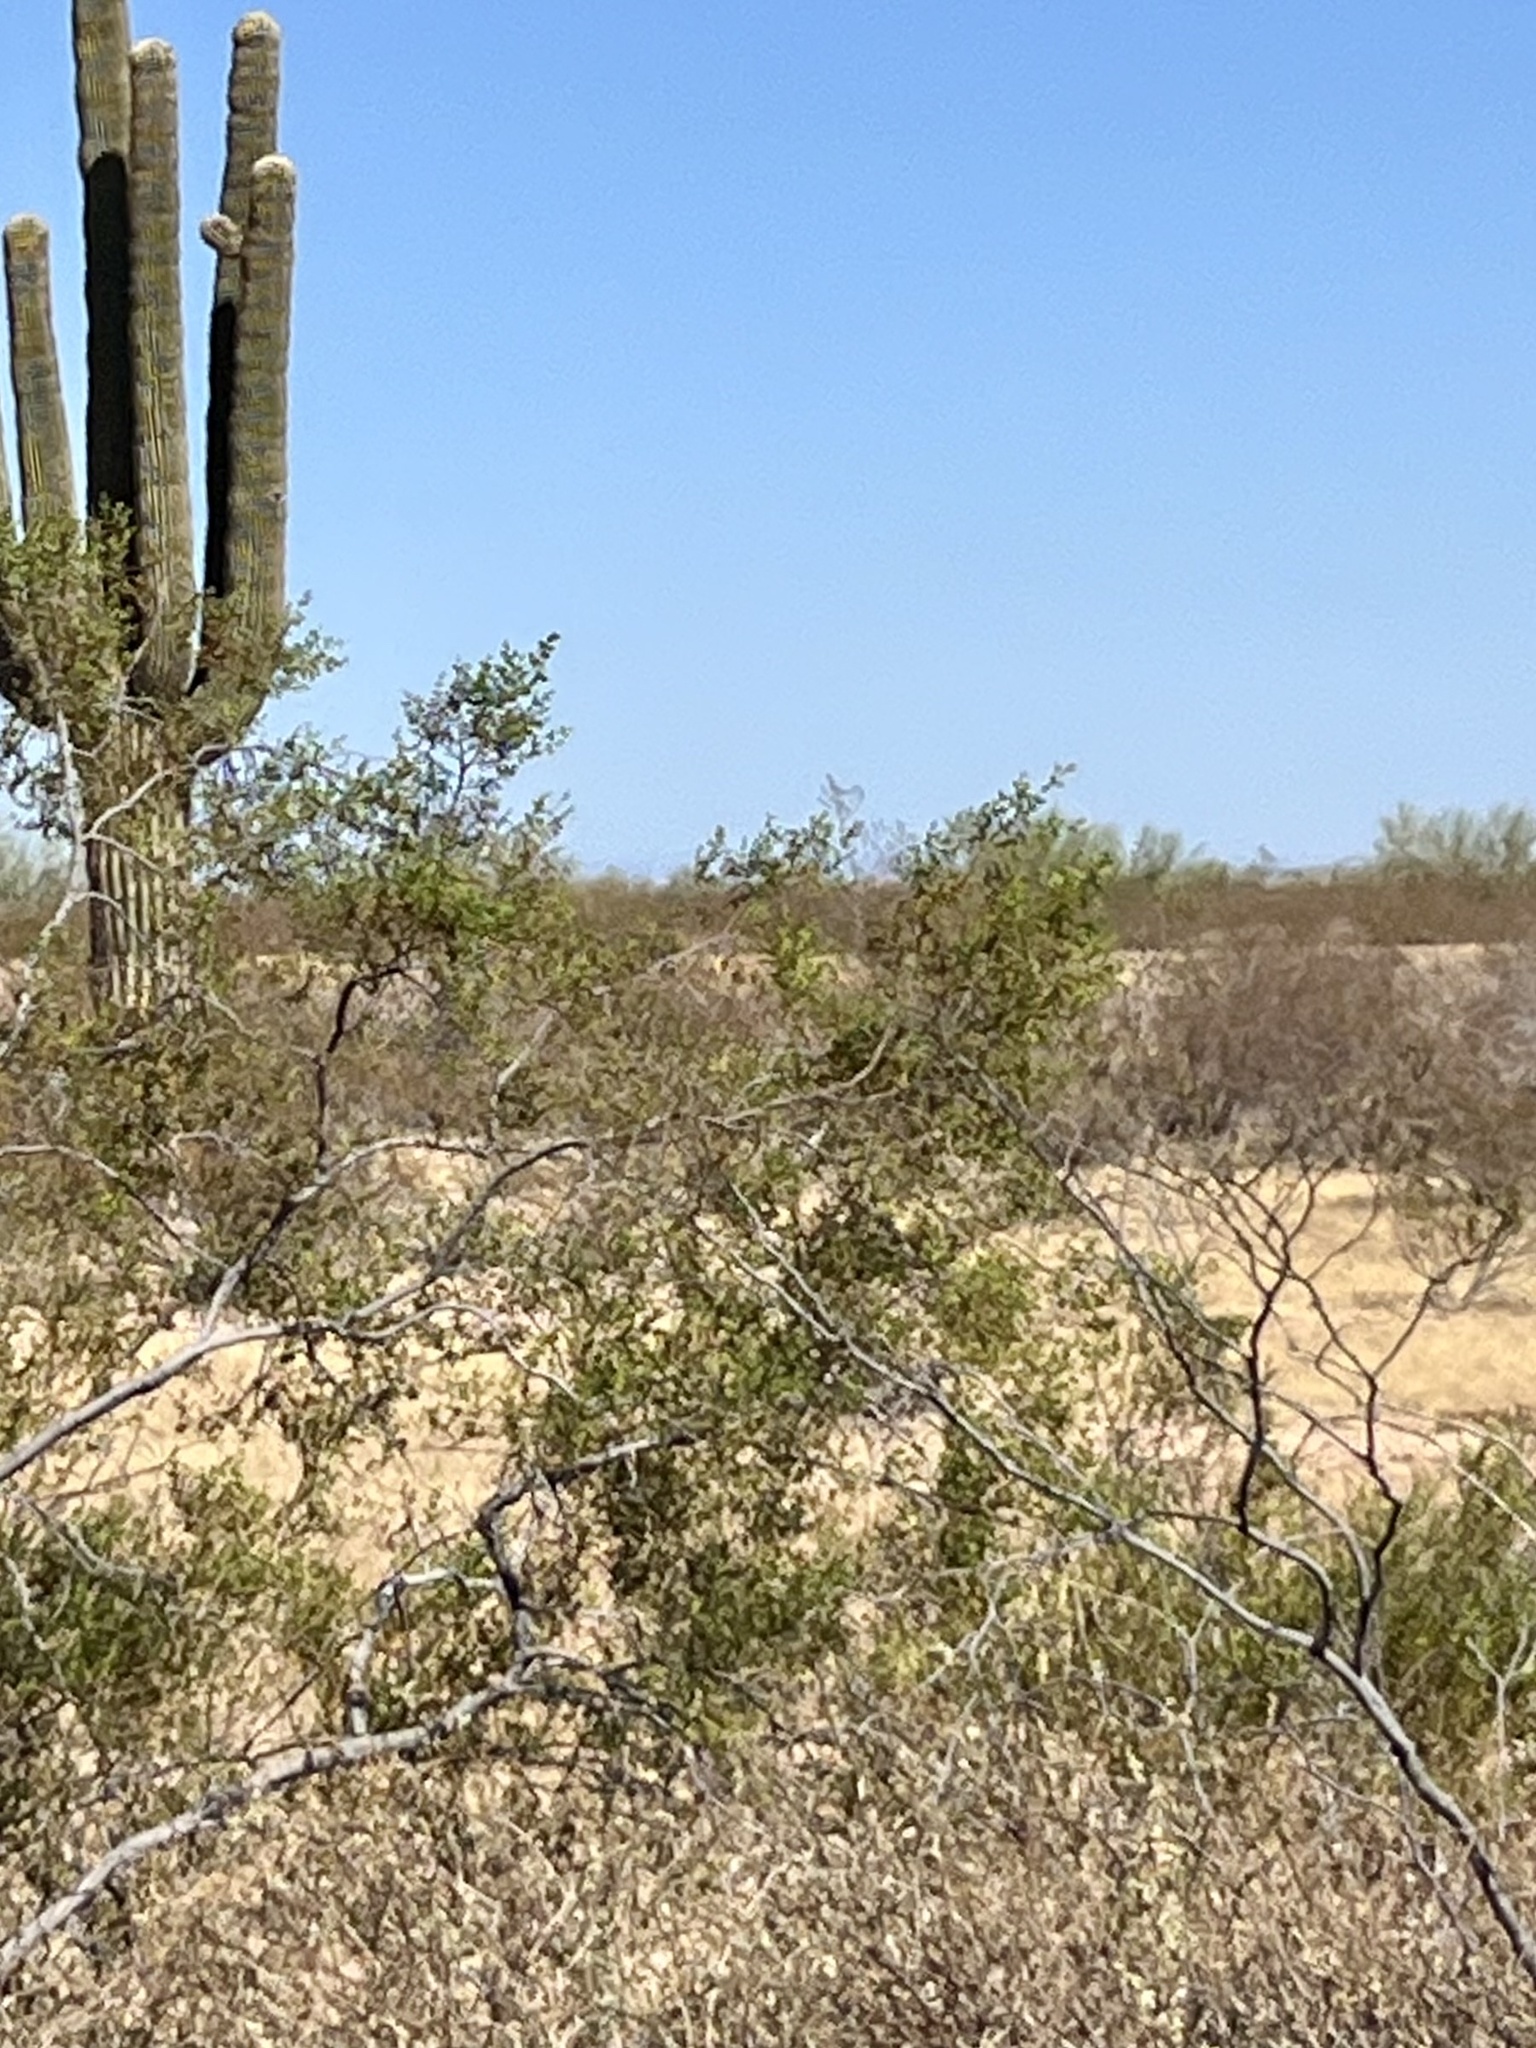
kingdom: Plantae
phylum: Tracheophyta
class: Magnoliopsida
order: Zygophyllales
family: Zygophyllaceae
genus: Larrea
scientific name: Larrea tridentata
